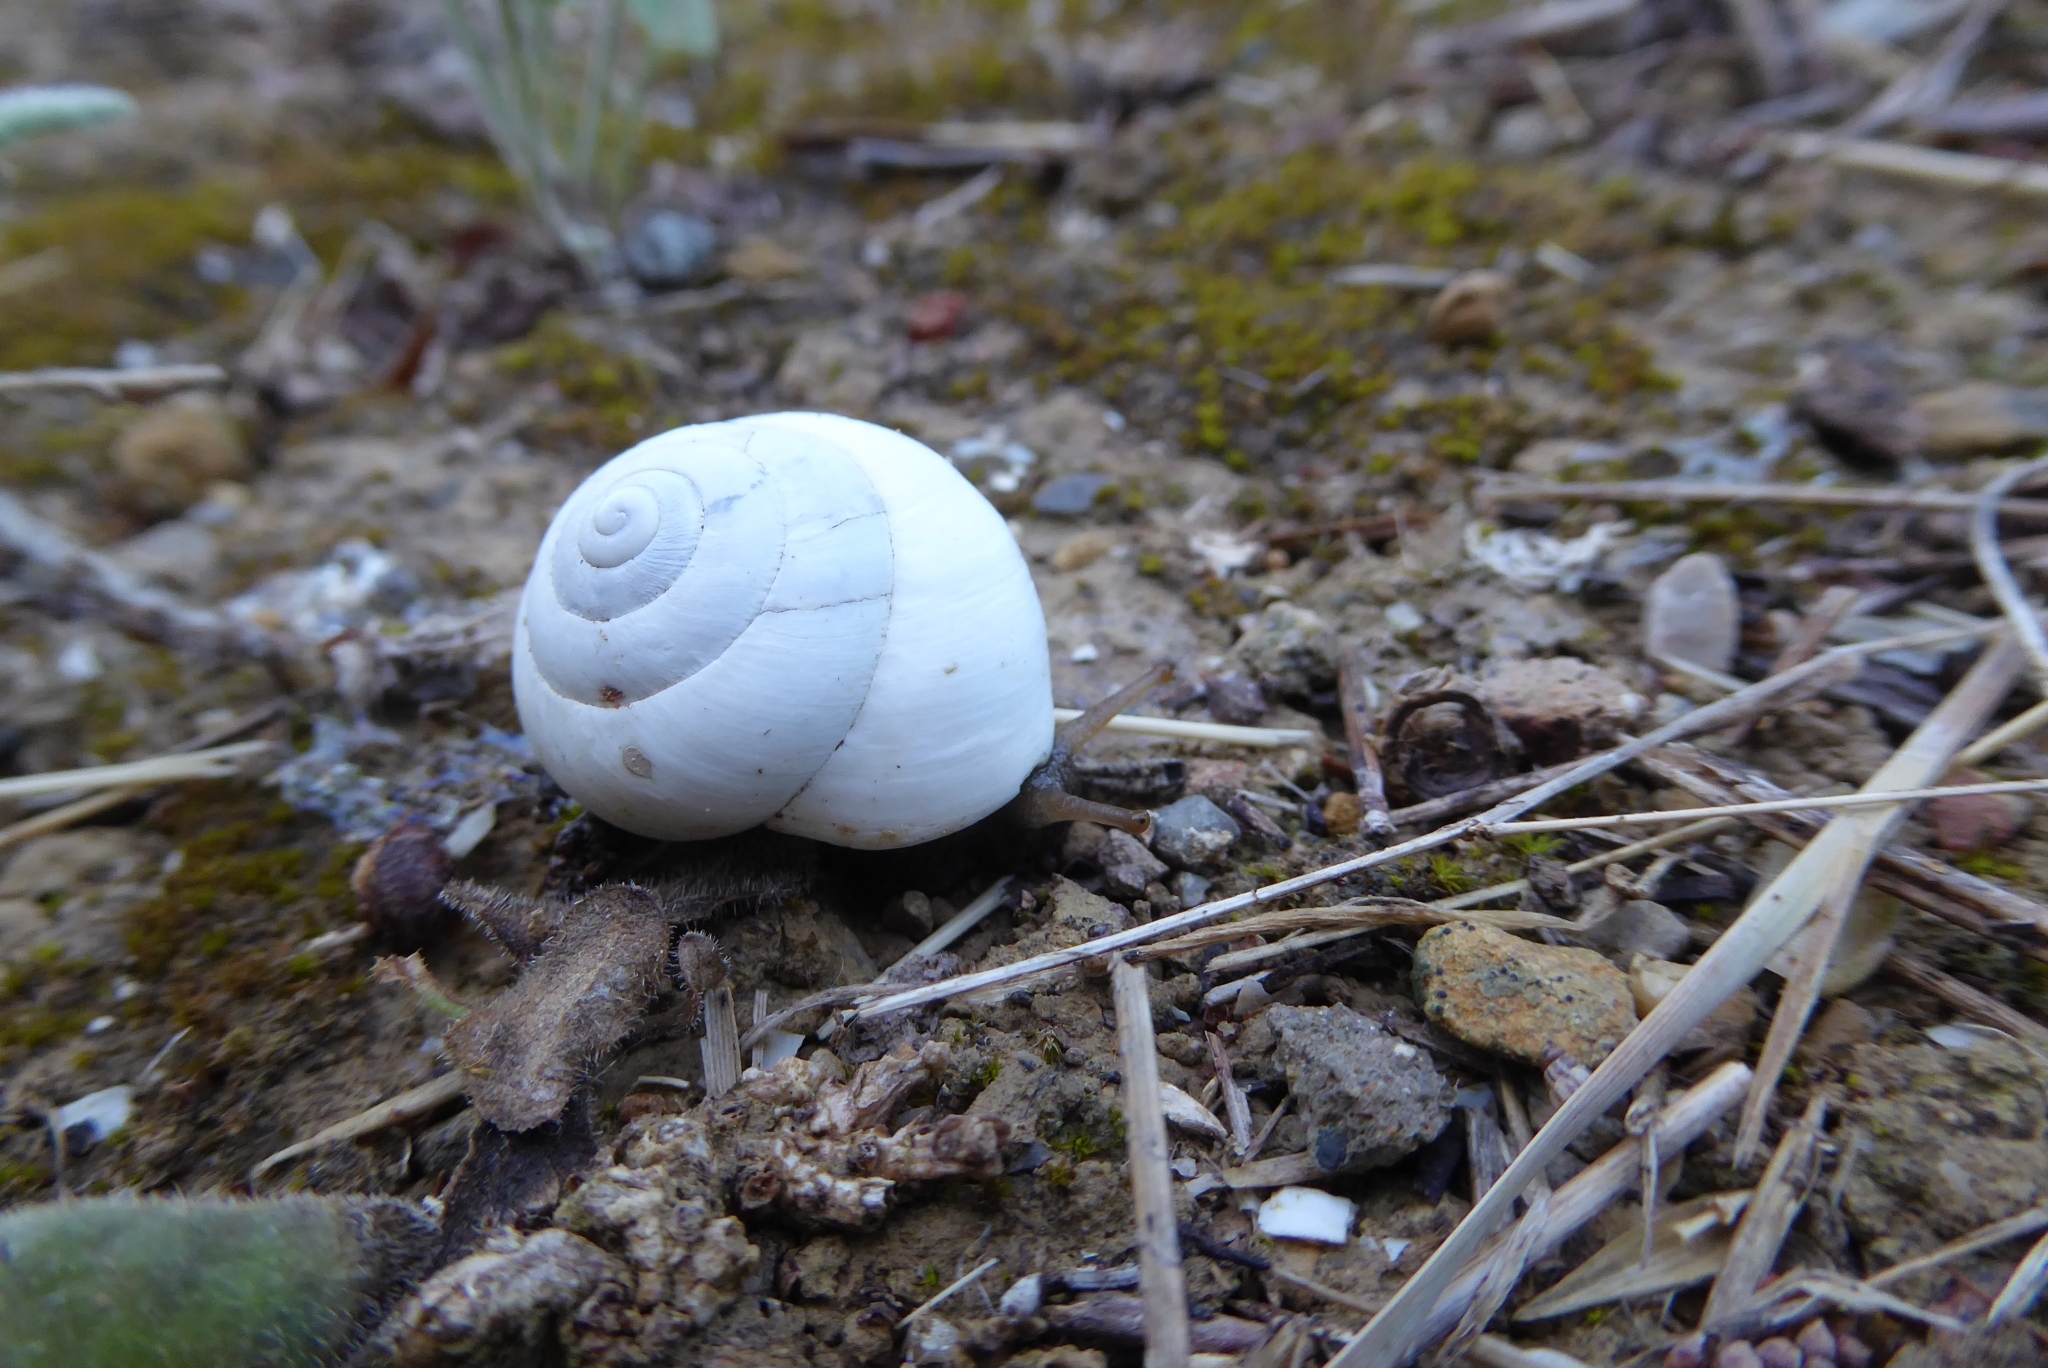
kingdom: Animalia
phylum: Mollusca
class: Gastropoda
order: Stylommatophora
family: Sphincterochilidae
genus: Sphincterochila
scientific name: Sphincterochila candidissima
